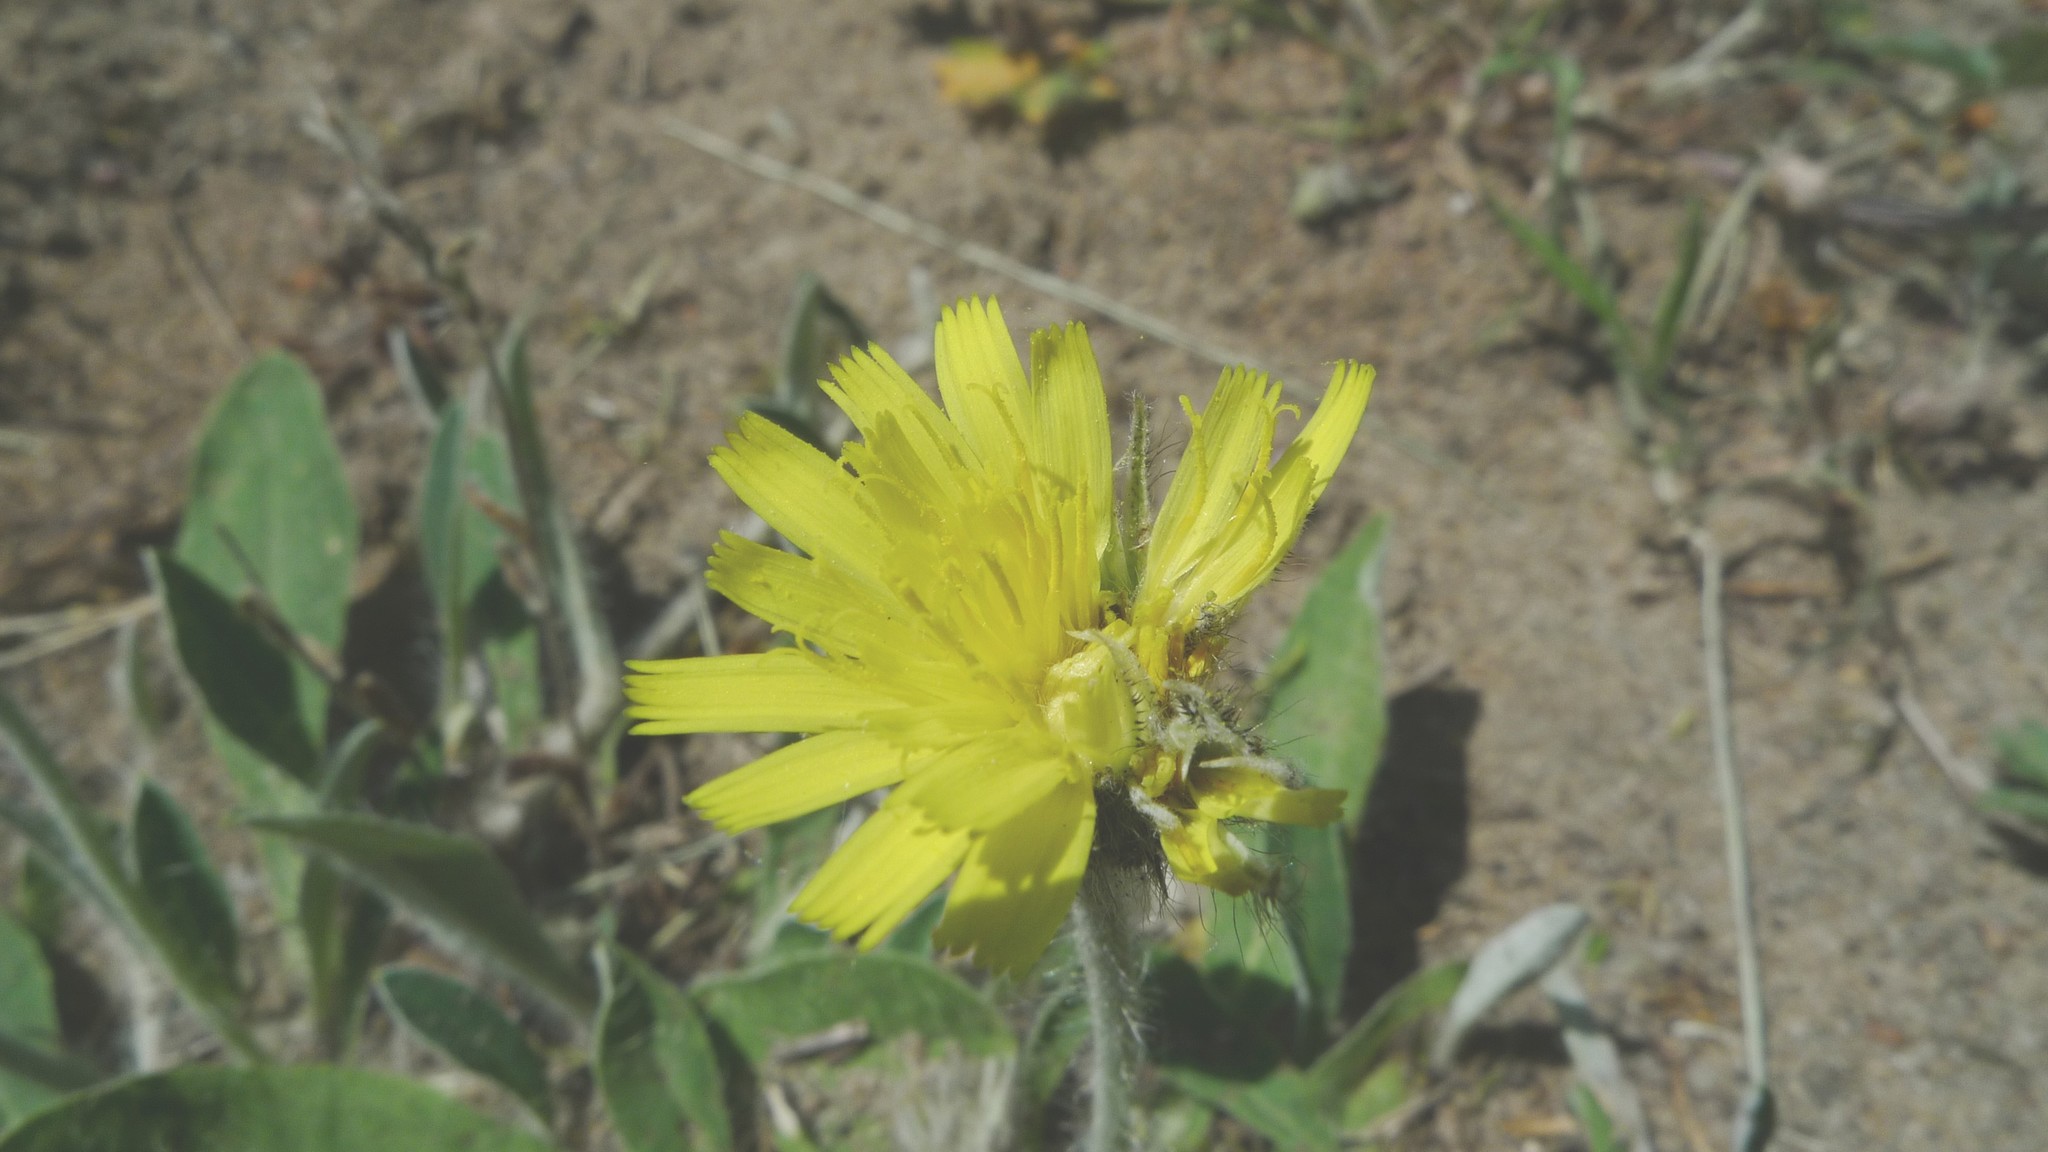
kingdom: Plantae
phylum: Tracheophyta
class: Magnoliopsida
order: Asterales
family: Asteraceae
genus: Pilosella
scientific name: Pilosella officinarum
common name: Mouse-ear hawkweed
